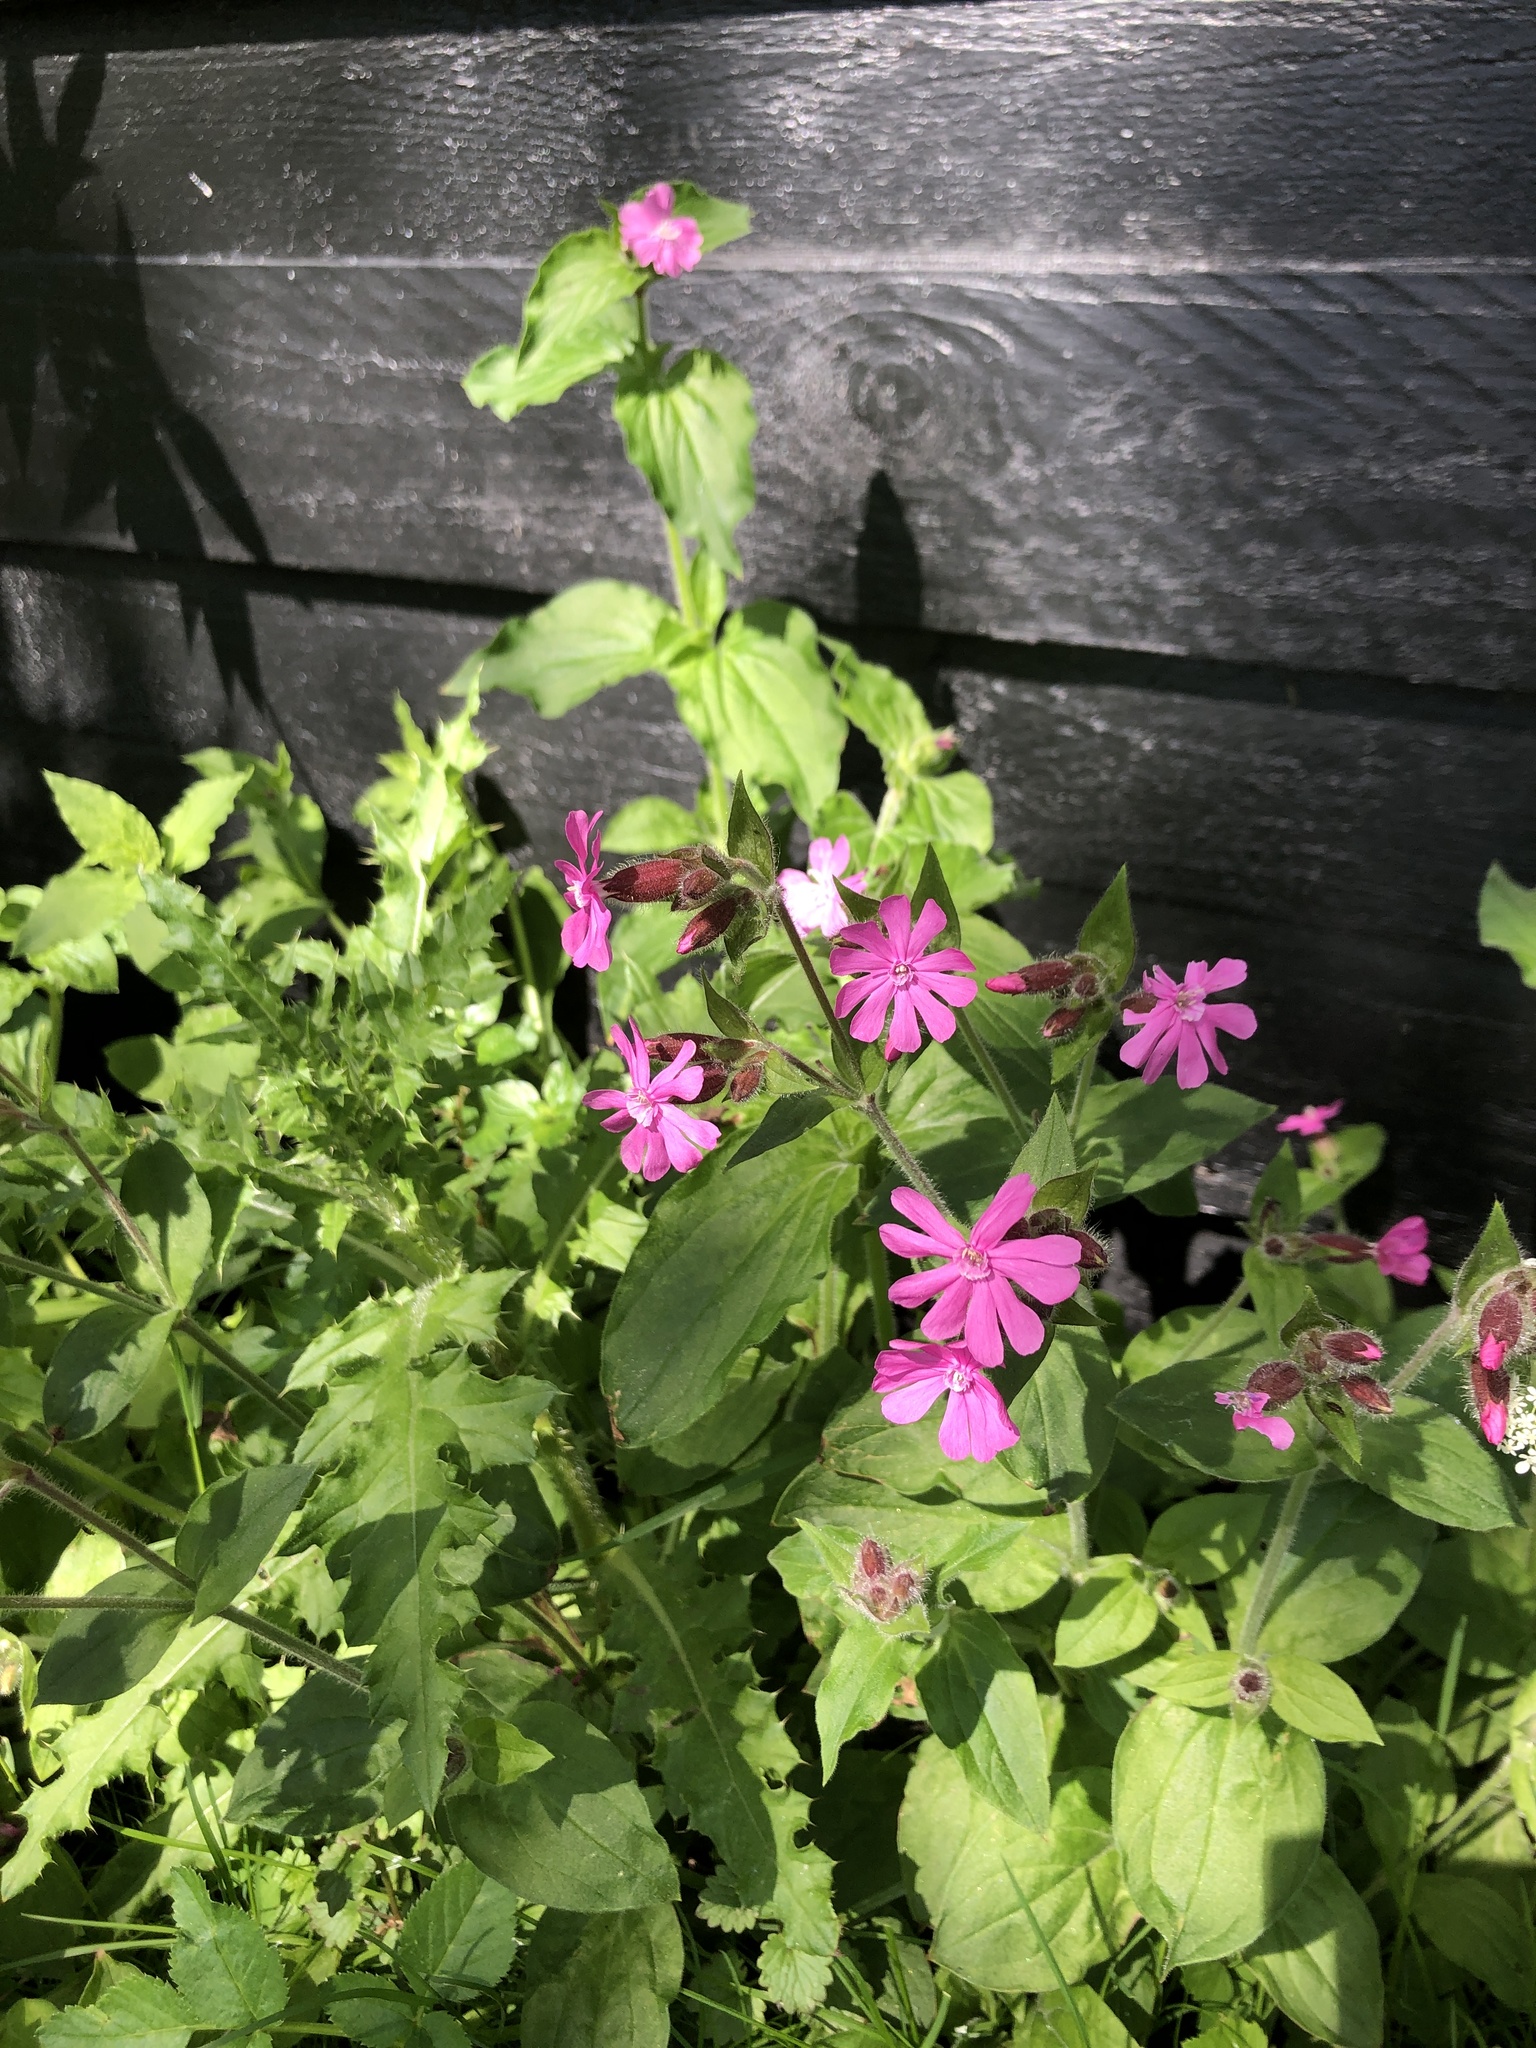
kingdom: Plantae
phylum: Tracheophyta
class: Magnoliopsida
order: Caryophyllales
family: Caryophyllaceae
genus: Silene
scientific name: Silene dioica
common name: Red campion
